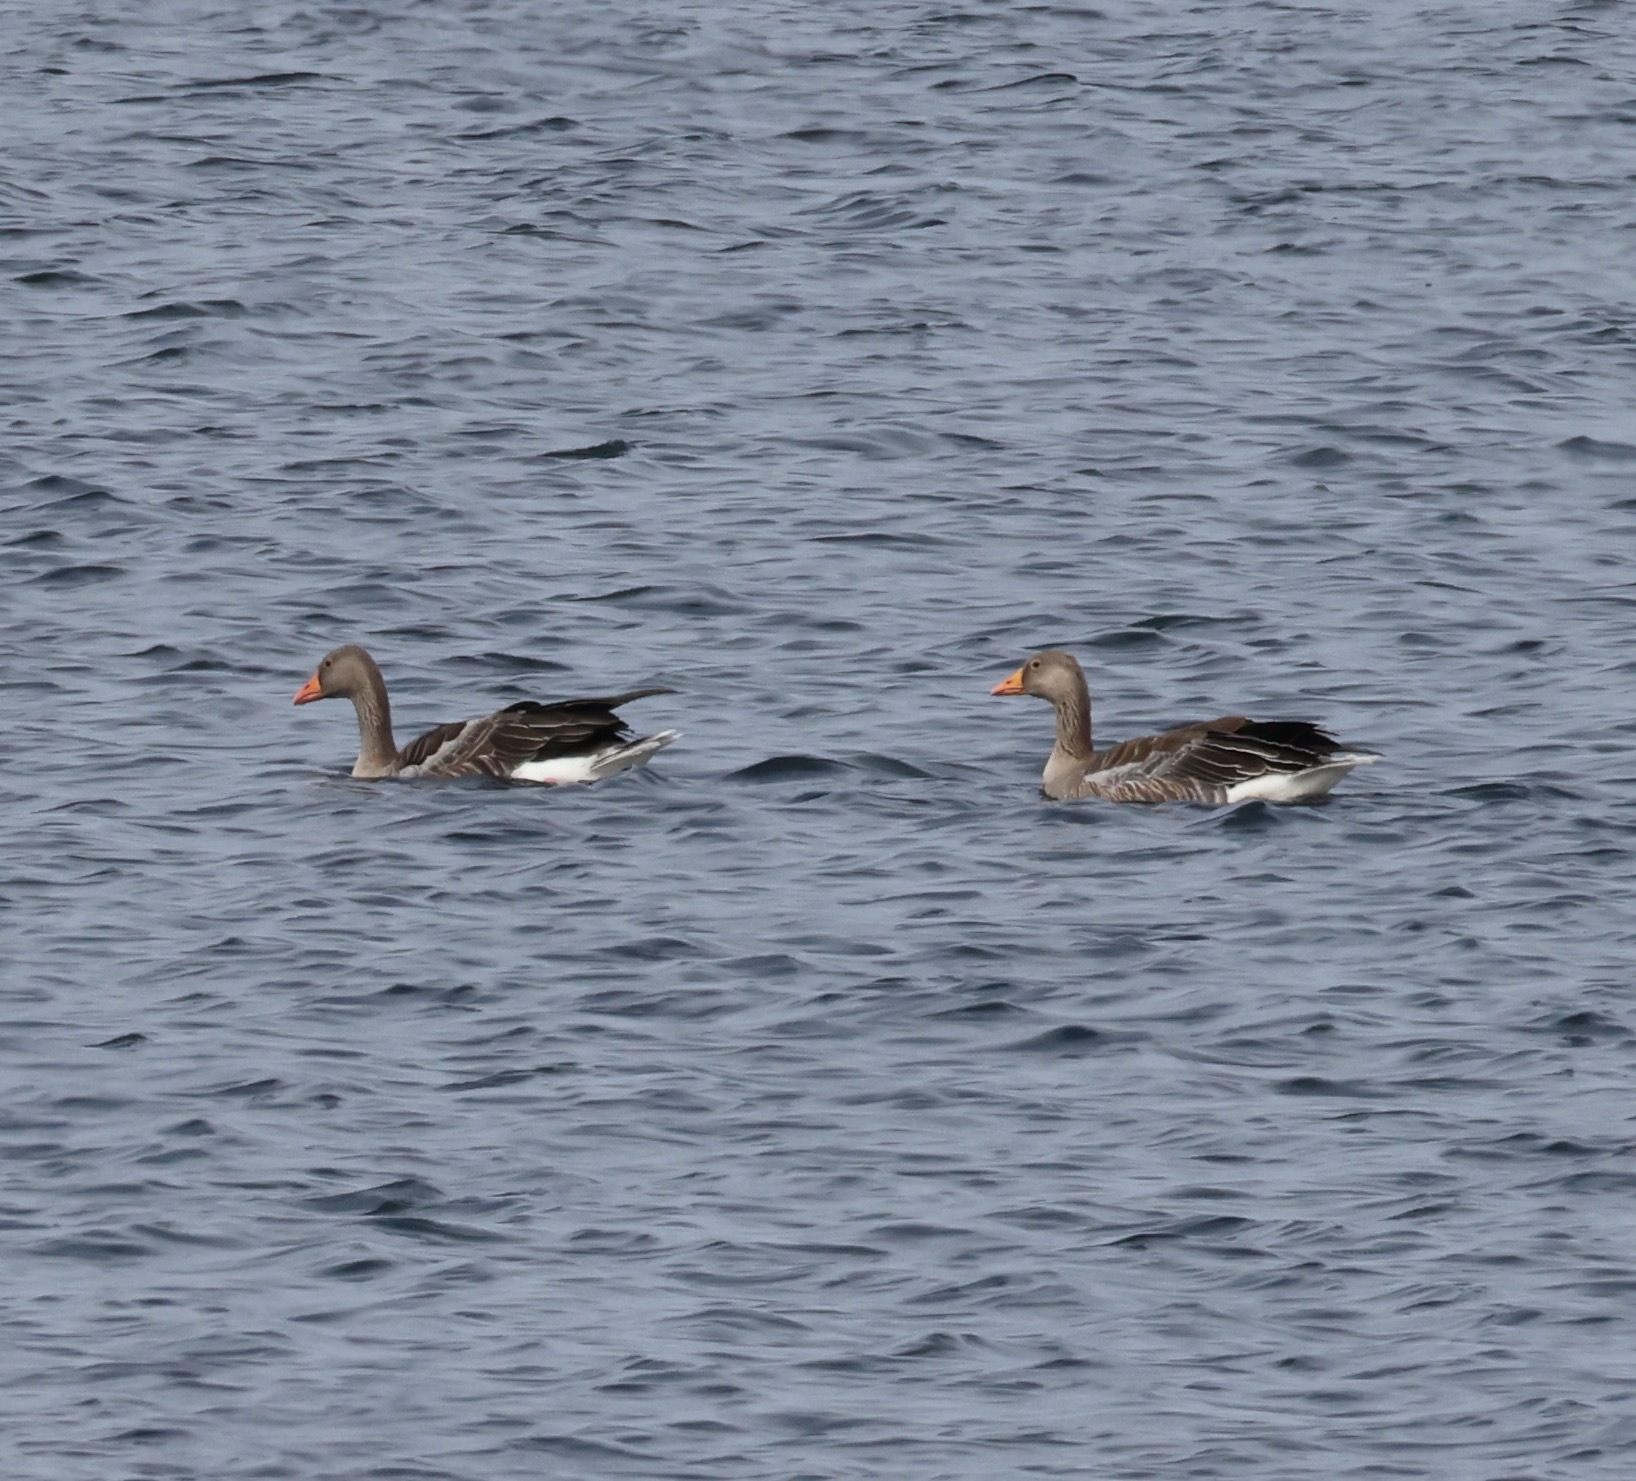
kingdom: Animalia
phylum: Chordata
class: Aves
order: Anseriformes
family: Anatidae
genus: Anser
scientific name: Anser anser
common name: Greylag goose
